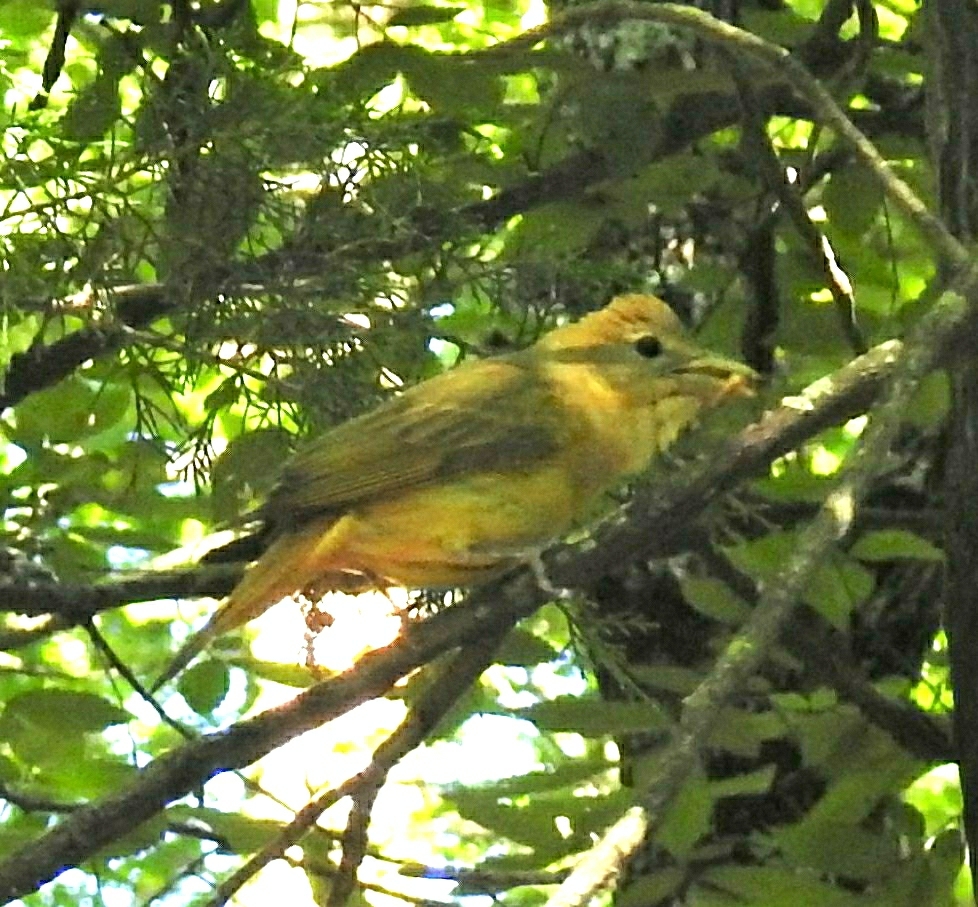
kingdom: Animalia
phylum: Chordata
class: Aves
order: Passeriformes
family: Cardinalidae
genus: Piranga
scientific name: Piranga rubra
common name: Summer tanager
